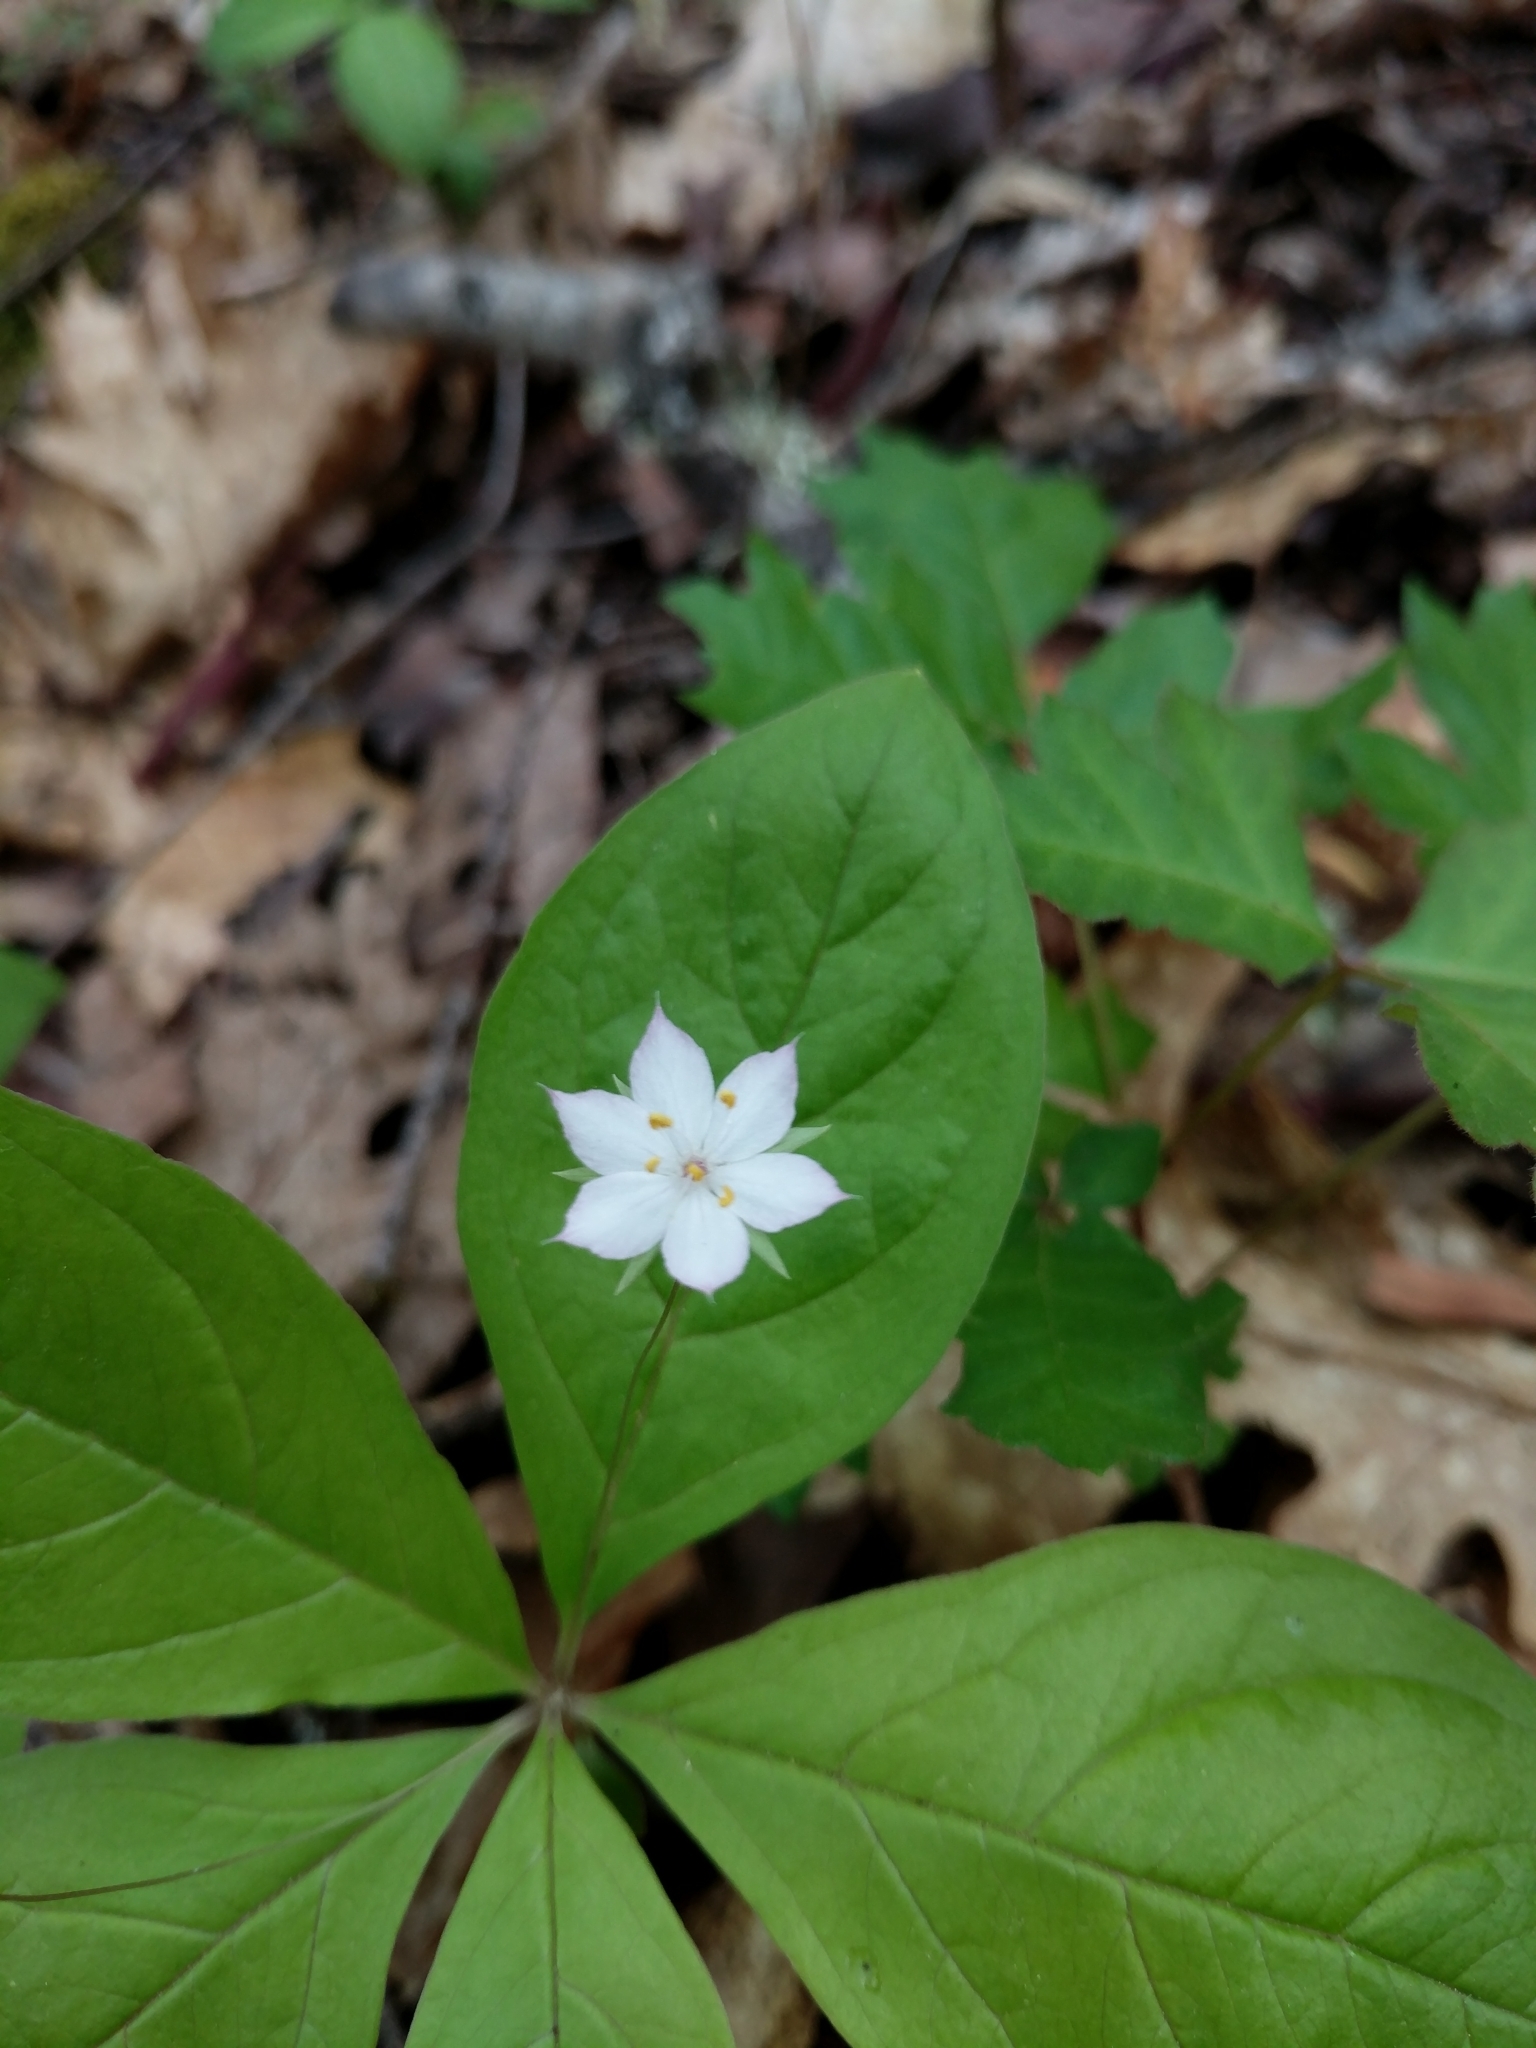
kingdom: Plantae
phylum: Tracheophyta
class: Magnoliopsida
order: Ericales
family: Primulaceae
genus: Lysimachia
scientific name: Lysimachia latifolia
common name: Pacific starflower
